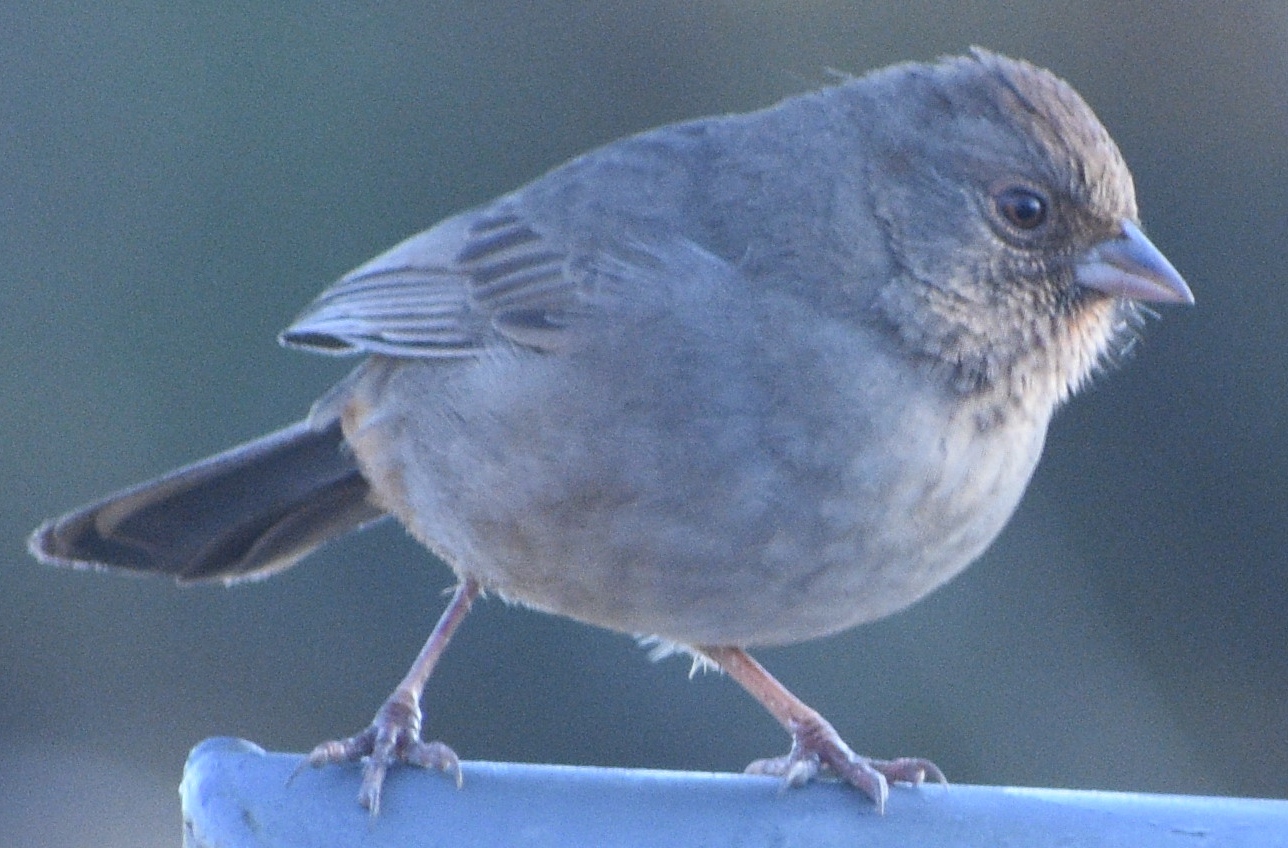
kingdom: Animalia
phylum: Chordata
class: Aves
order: Passeriformes
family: Passerellidae
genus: Melozone
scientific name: Melozone crissalis
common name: California towhee
